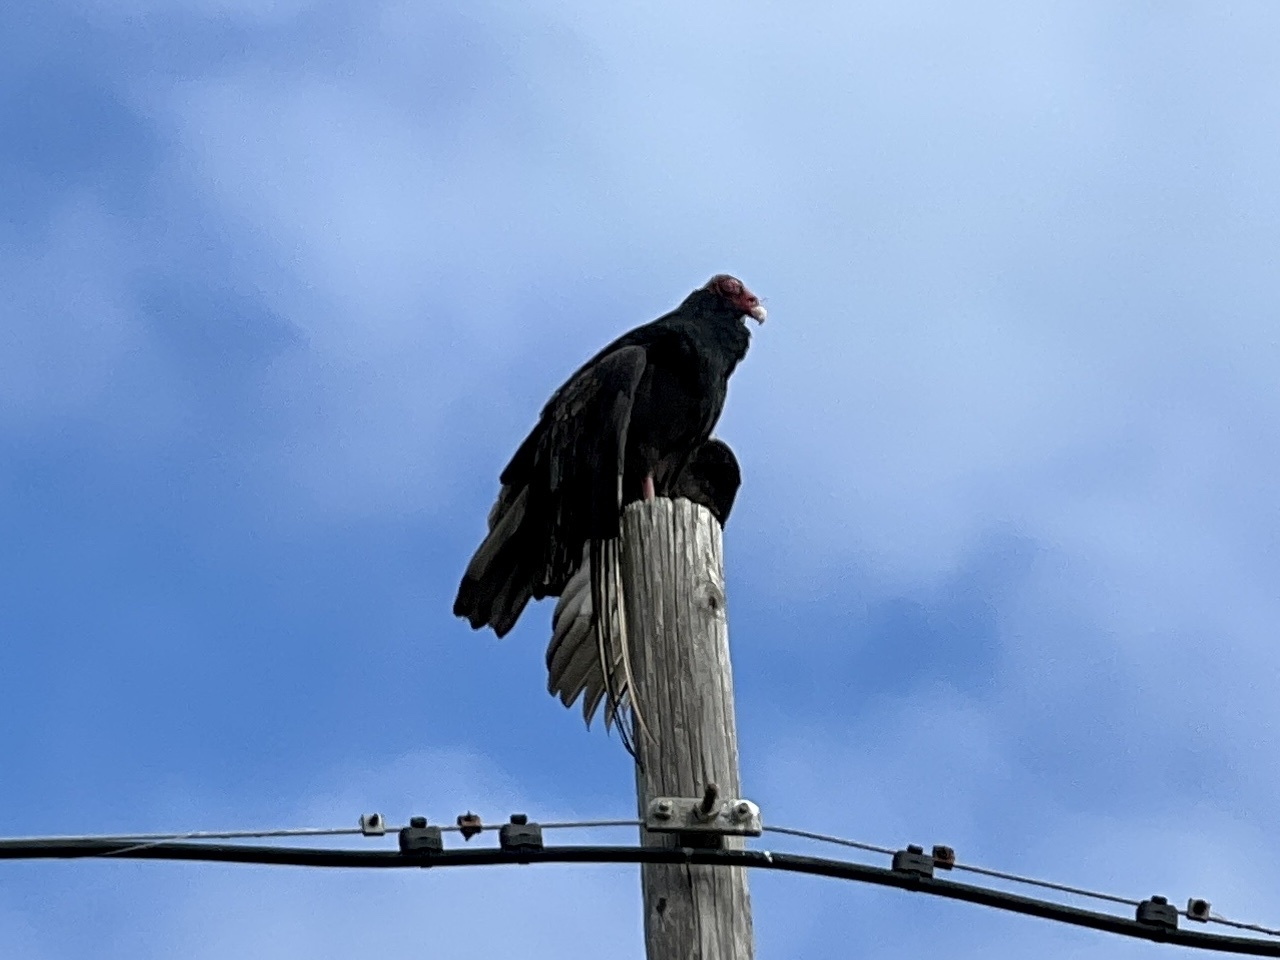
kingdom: Animalia
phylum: Chordata
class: Aves
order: Accipitriformes
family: Cathartidae
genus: Cathartes
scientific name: Cathartes aura
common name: Turkey vulture
